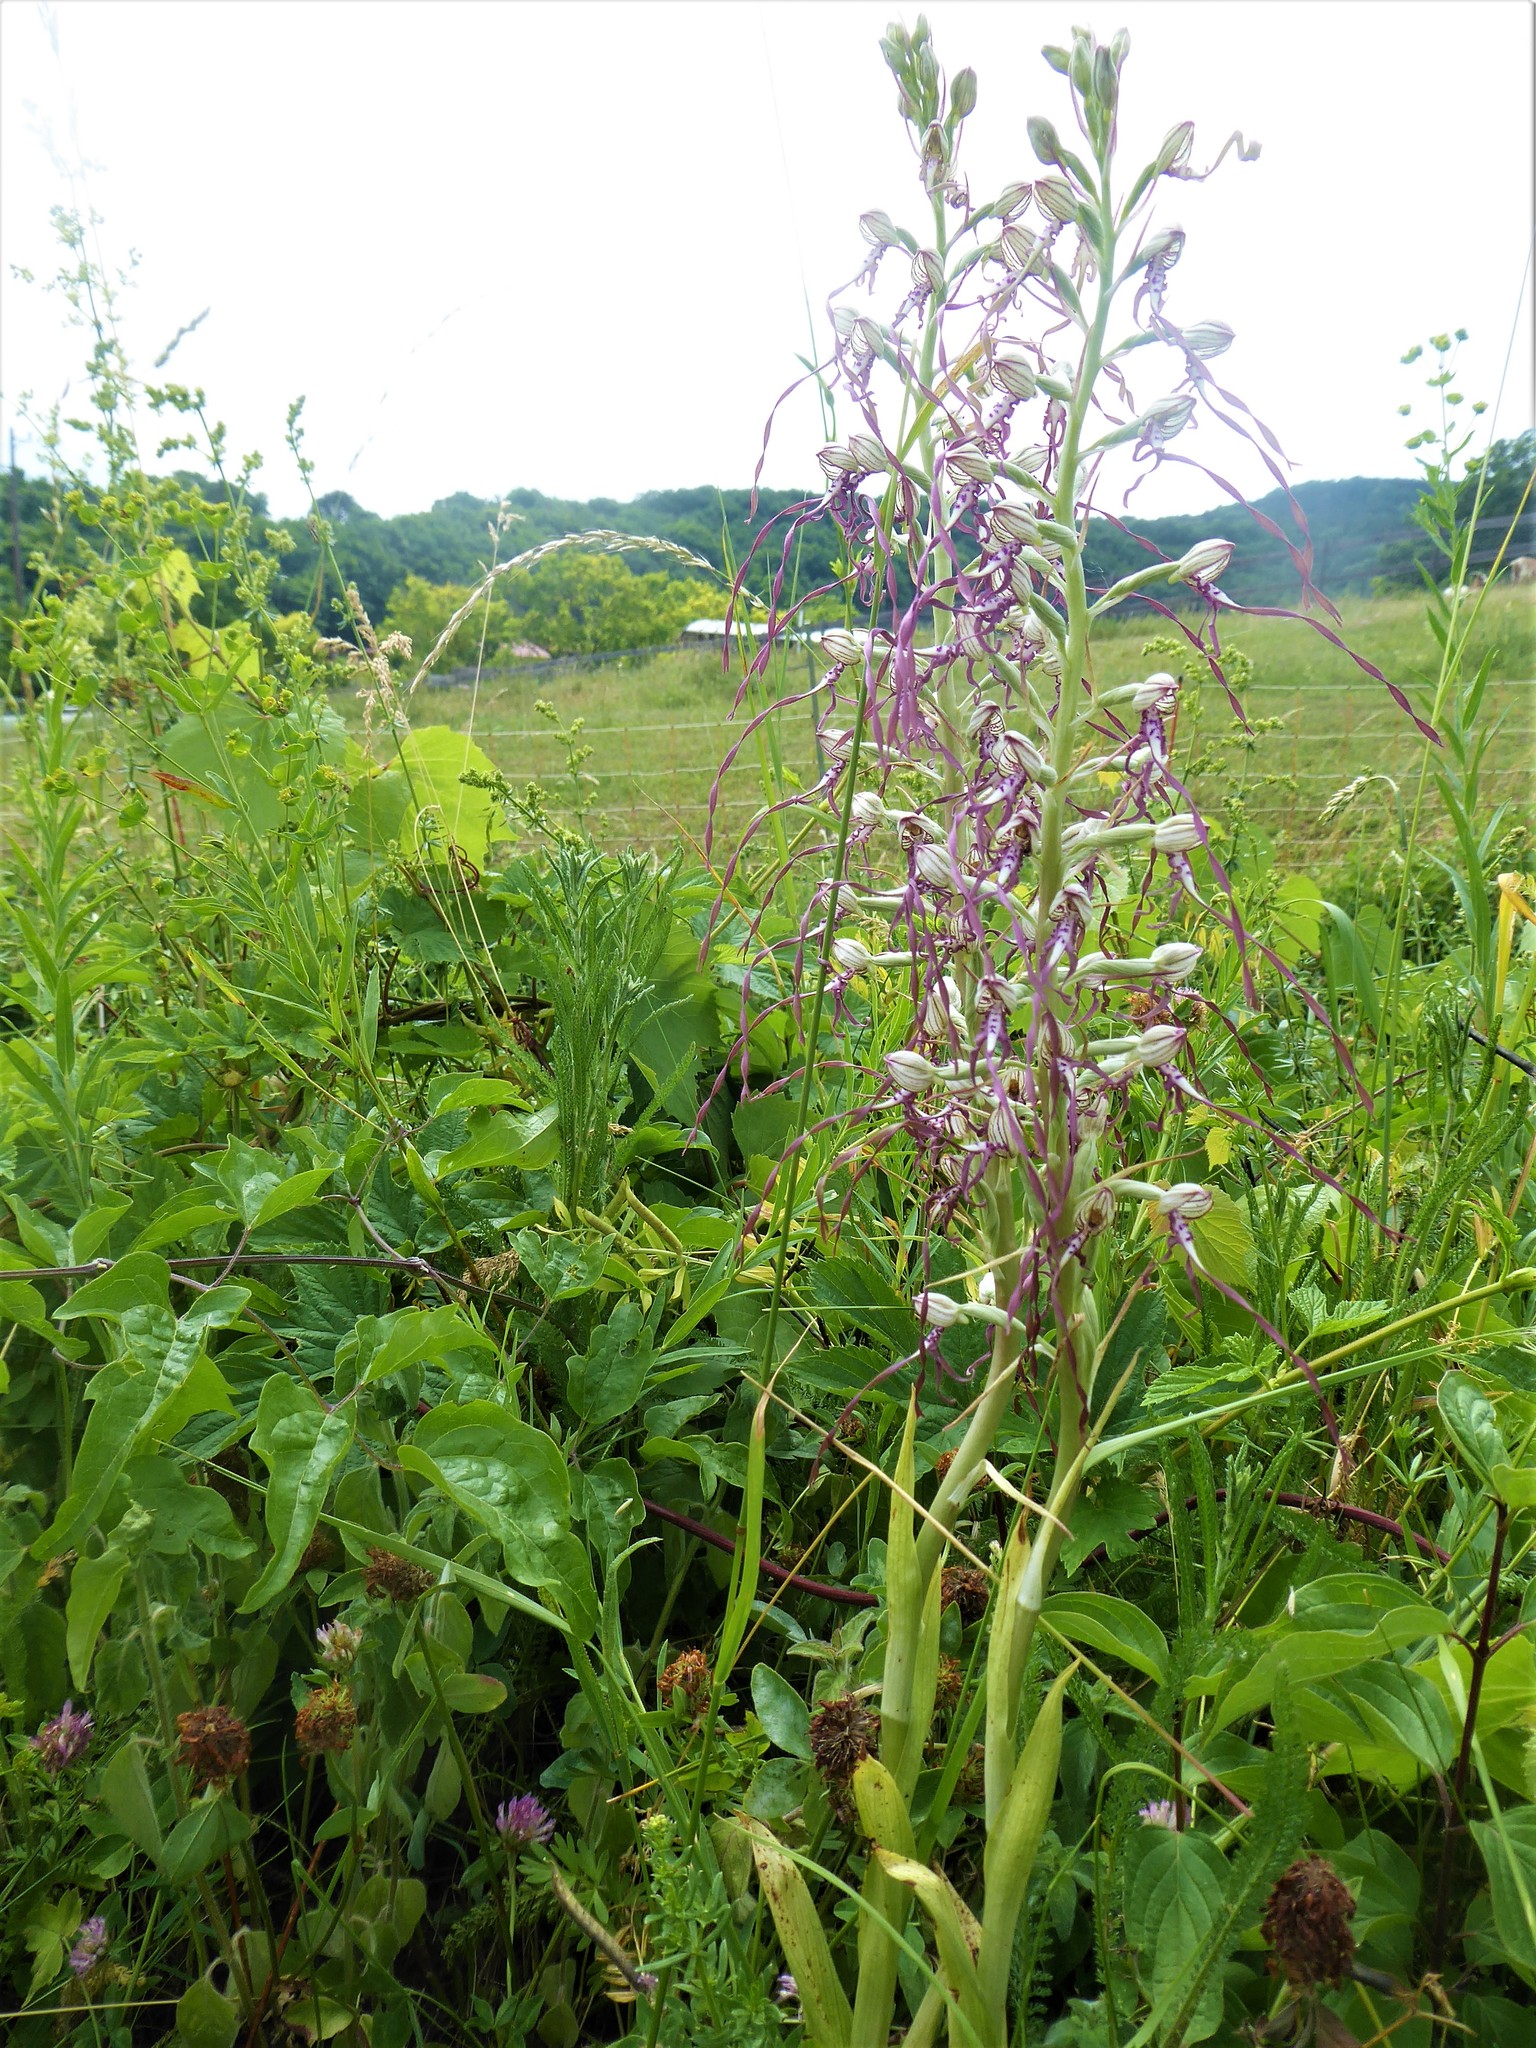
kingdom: Plantae
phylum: Tracheophyta
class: Liliopsida
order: Asparagales
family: Orchidaceae
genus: Himantoglossum
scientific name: Himantoglossum adriaticum
